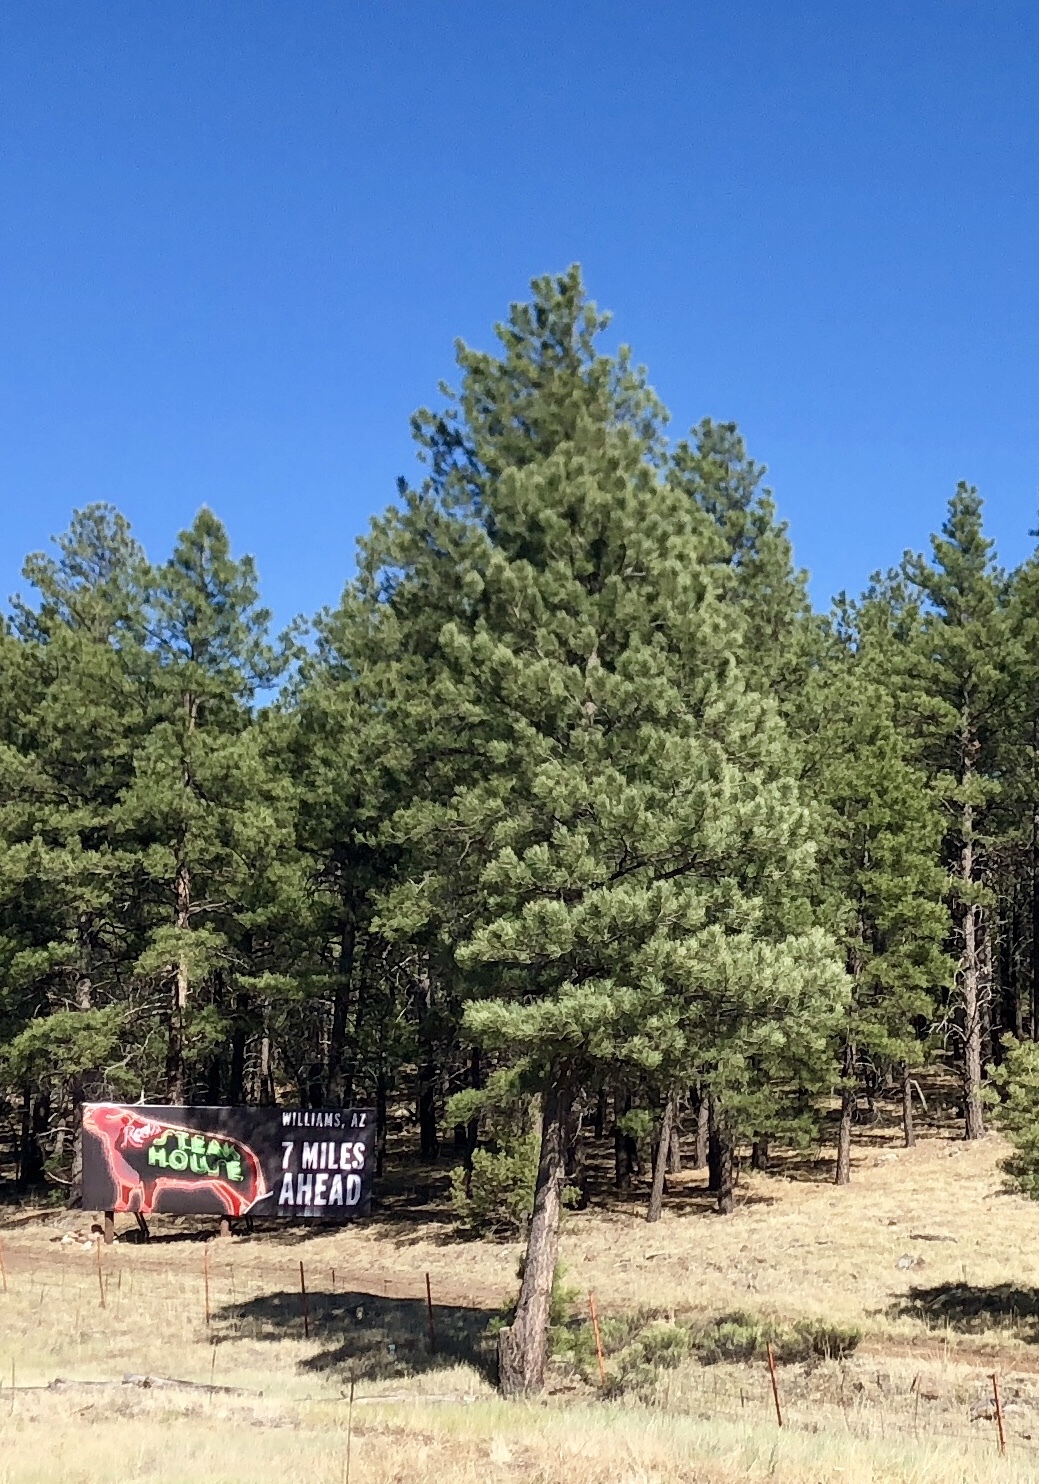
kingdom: Plantae
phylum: Tracheophyta
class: Pinopsida
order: Pinales
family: Pinaceae
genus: Pinus
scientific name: Pinus ponderosa
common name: Western yellow-pine
